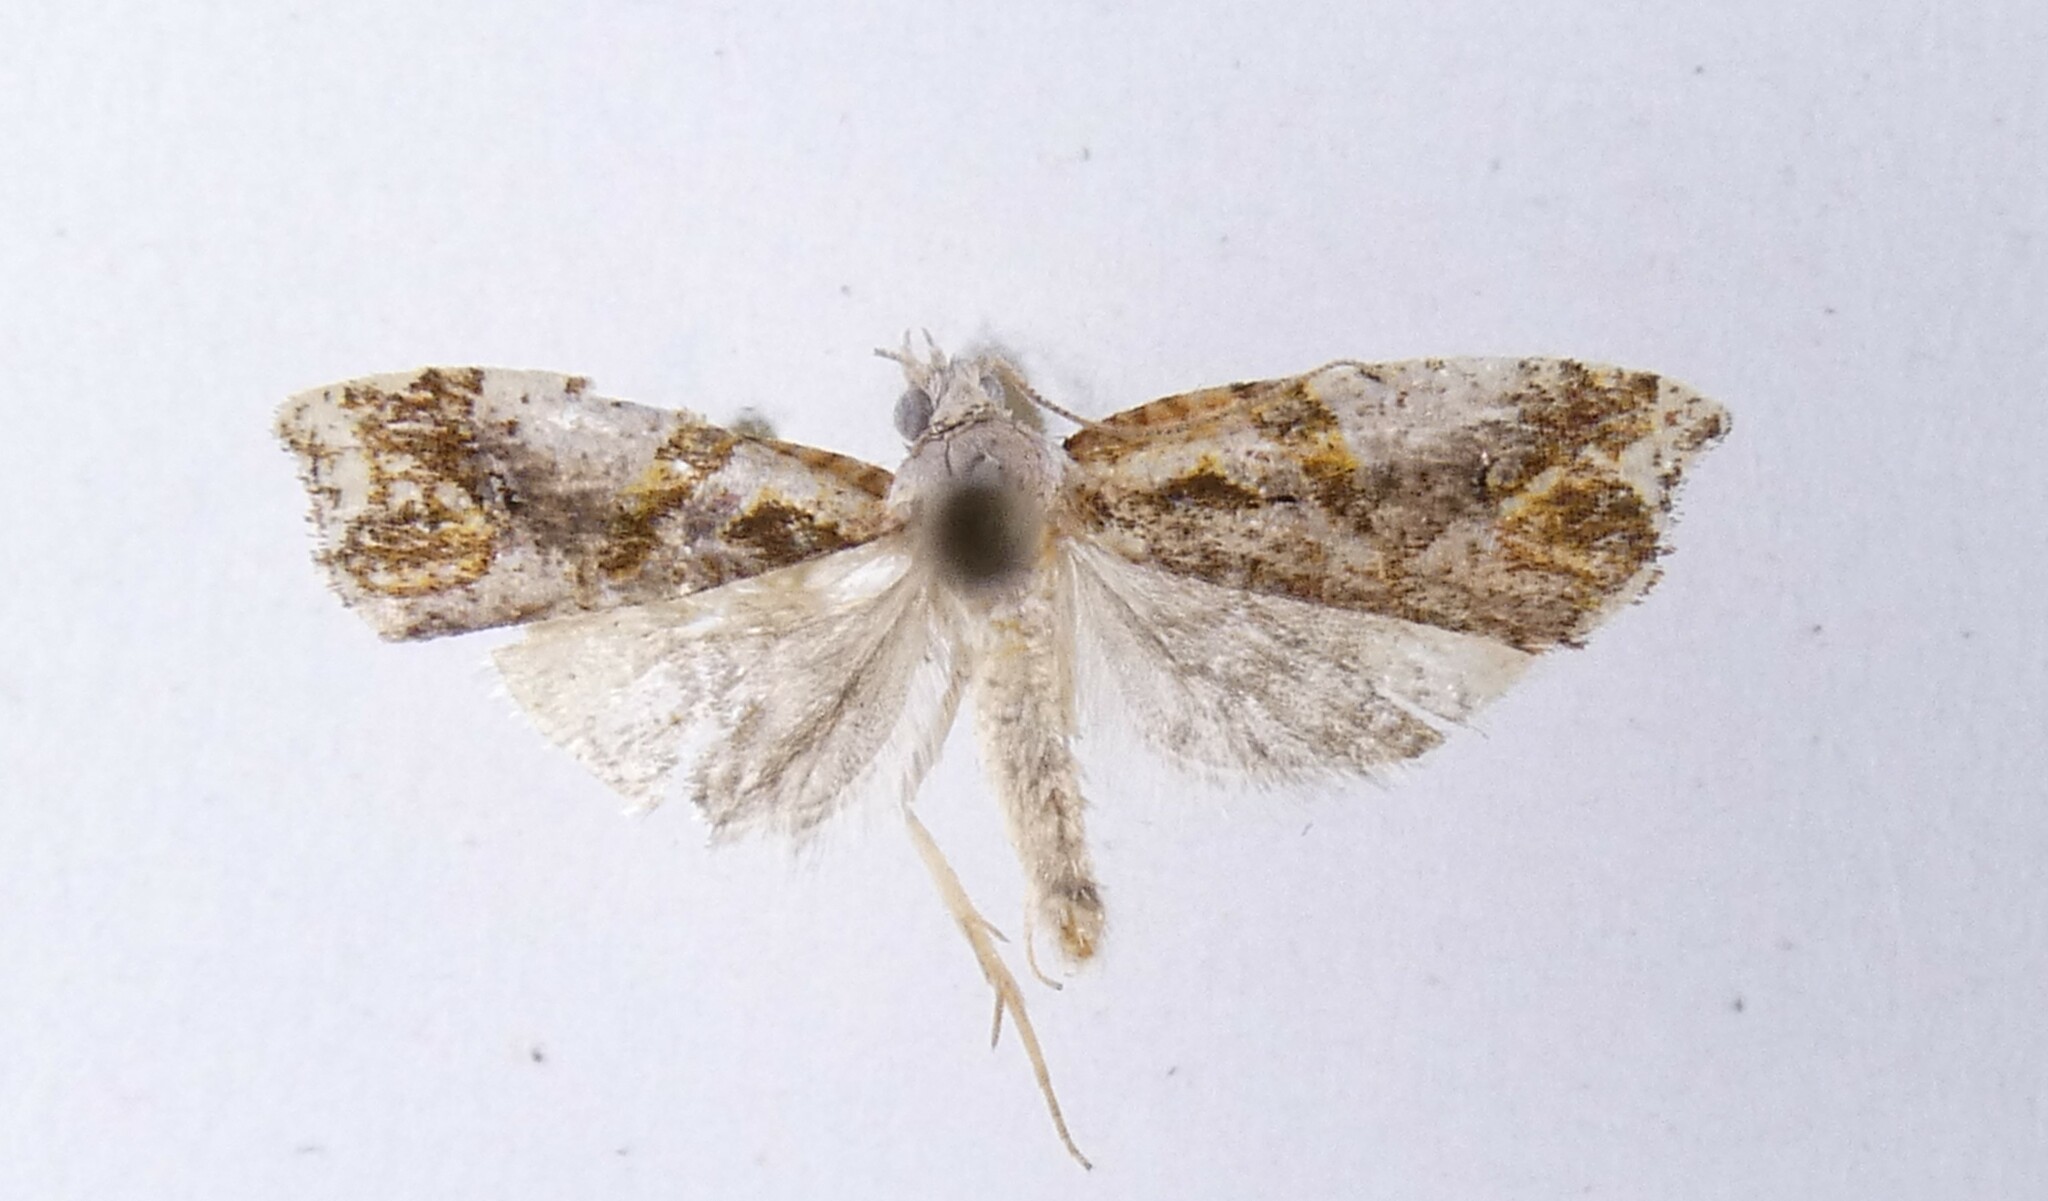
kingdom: Animalia
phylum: Arthropoda
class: Insecta
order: Lepidoptera
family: Tortricidae
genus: Pyrgotis
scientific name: Pyrgotis plagiatana
